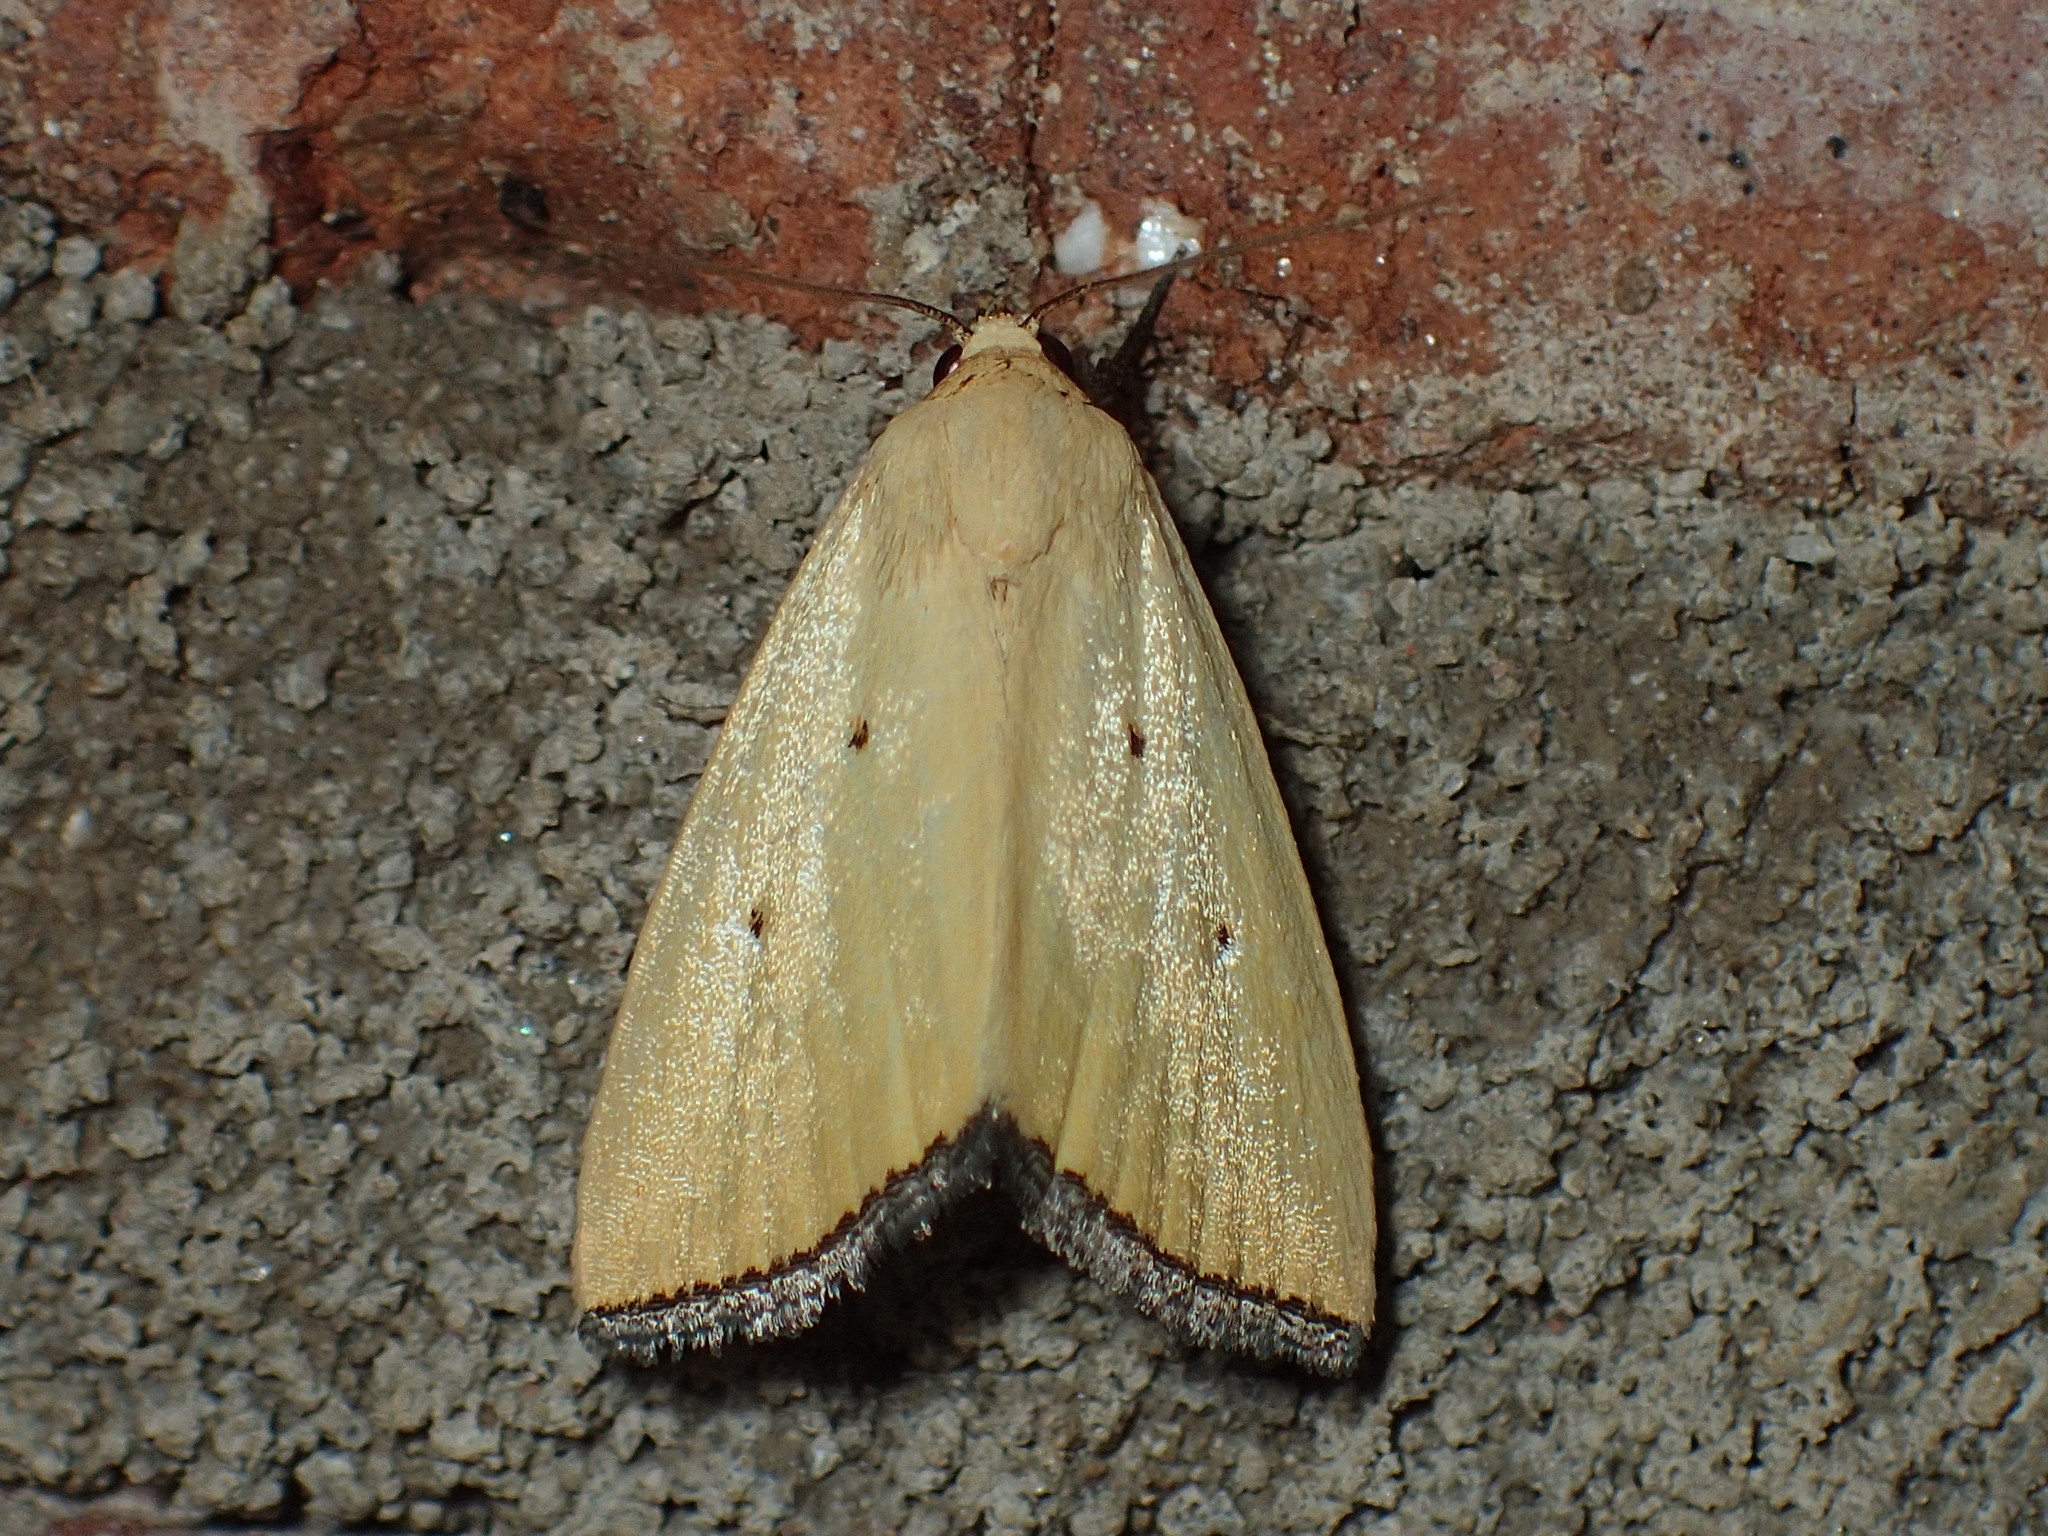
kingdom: Animalia
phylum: Arthropoda
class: Insecta
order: Lepidoptera
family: Noctuidae
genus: Marimatha
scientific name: Marimatha nigrofimbria
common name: Black-bordered lemon moth
